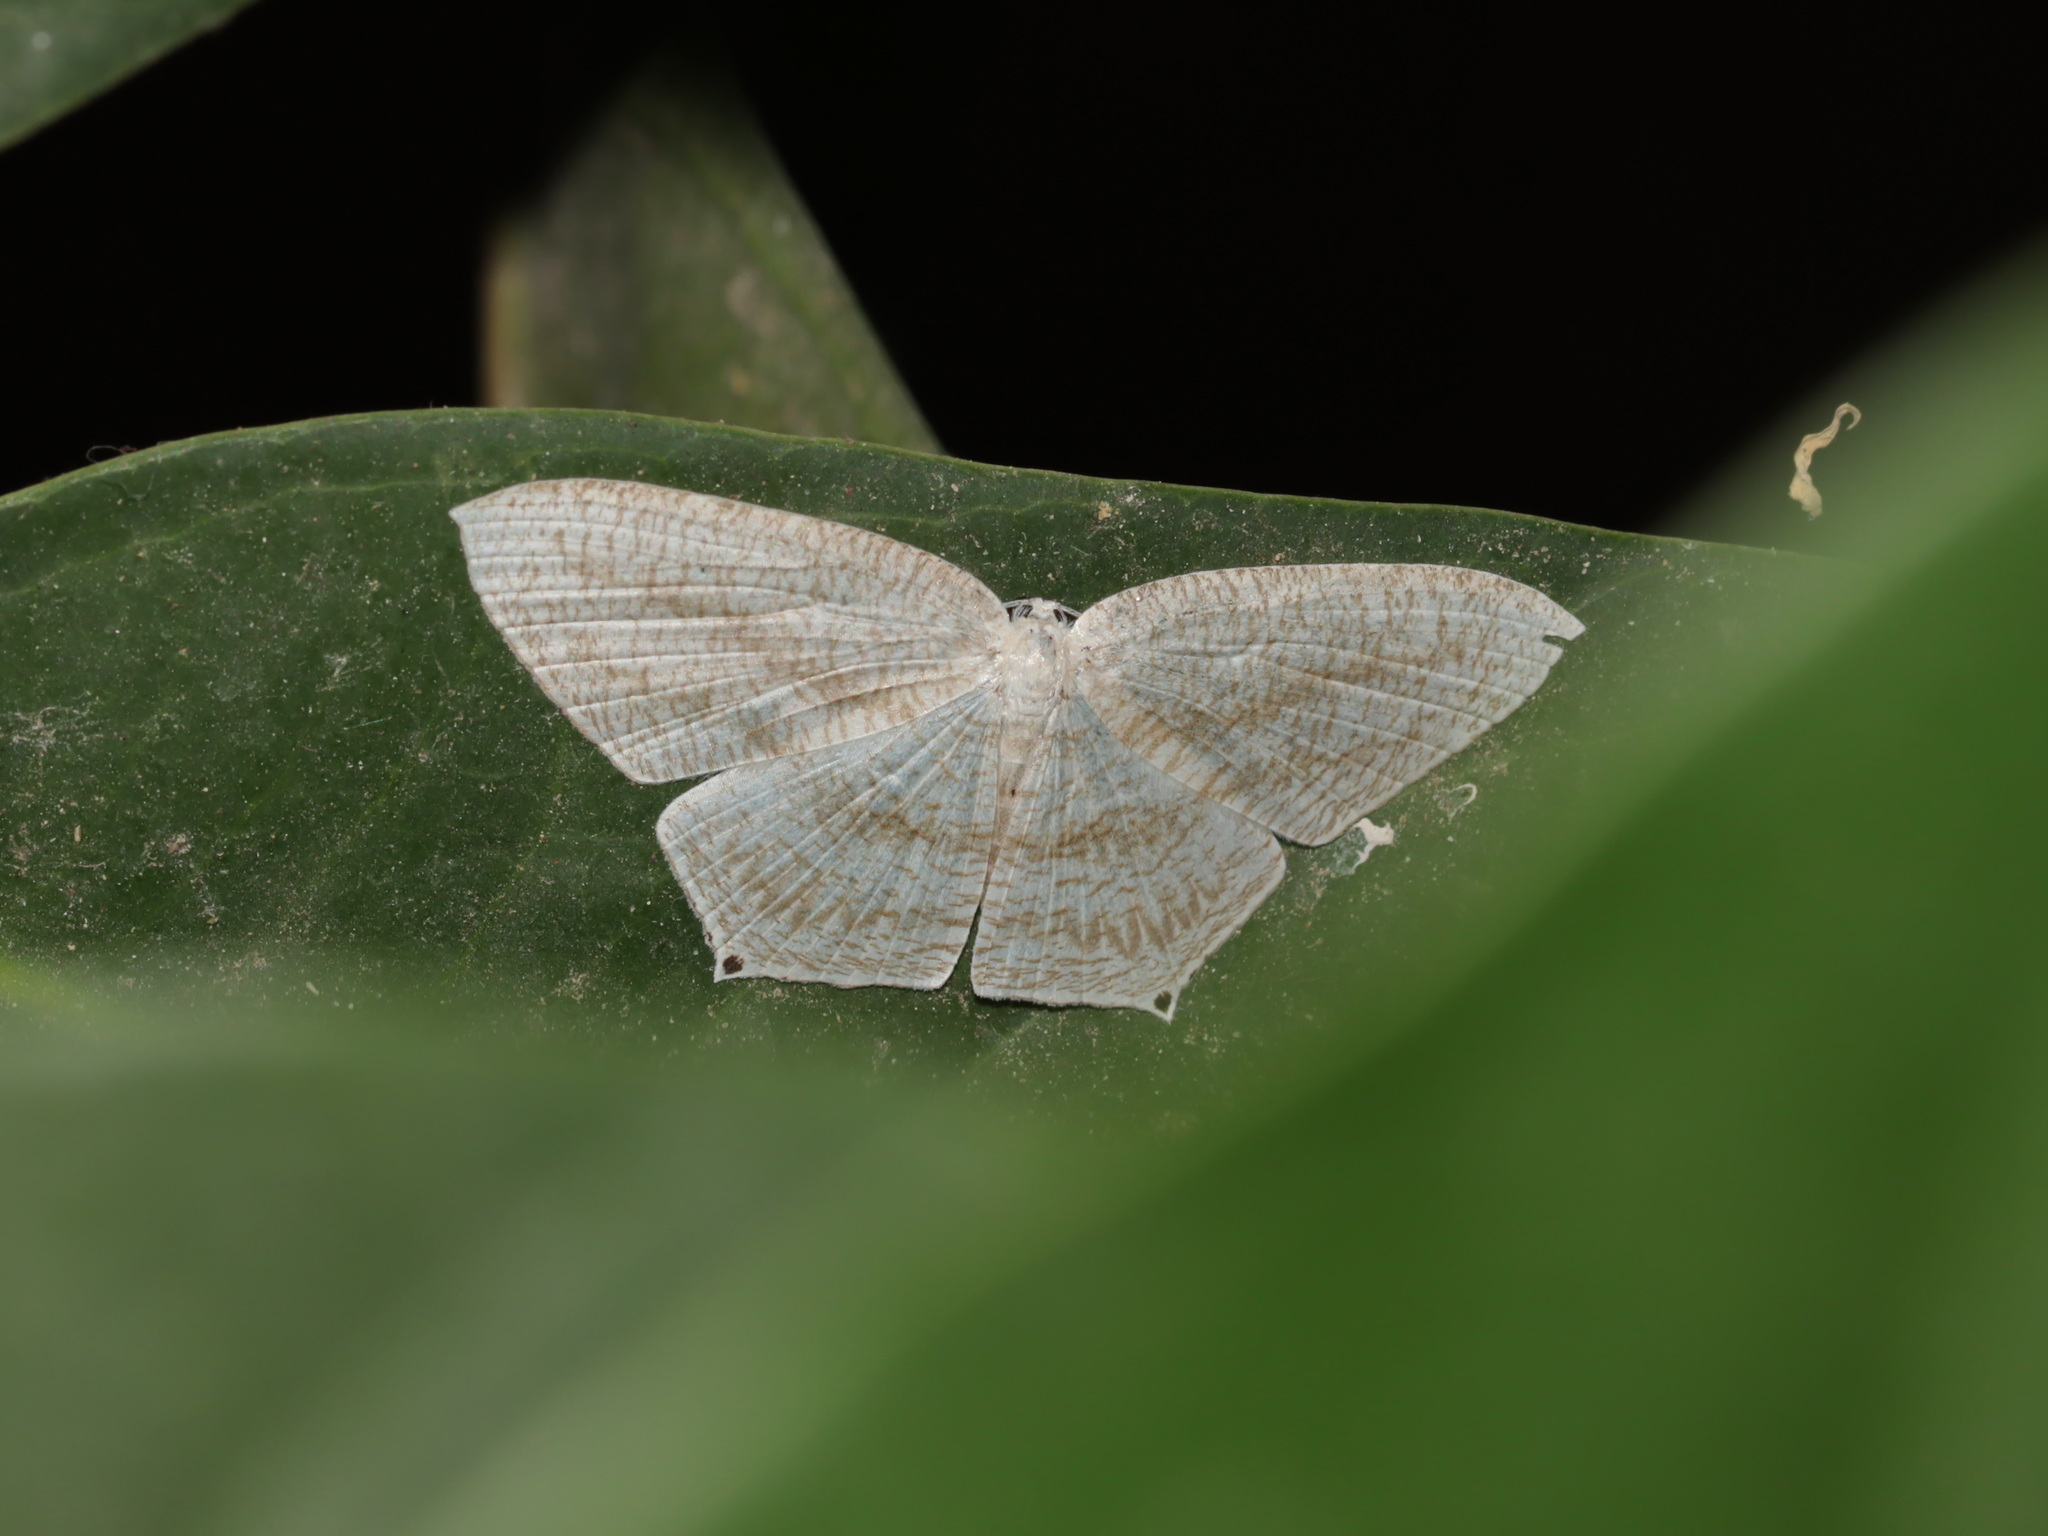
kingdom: Animalia
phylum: Arthropoda
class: Insecta
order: Lepidoptera
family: Uraniidae
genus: Acropteris
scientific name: Acropteris ciniferaria
